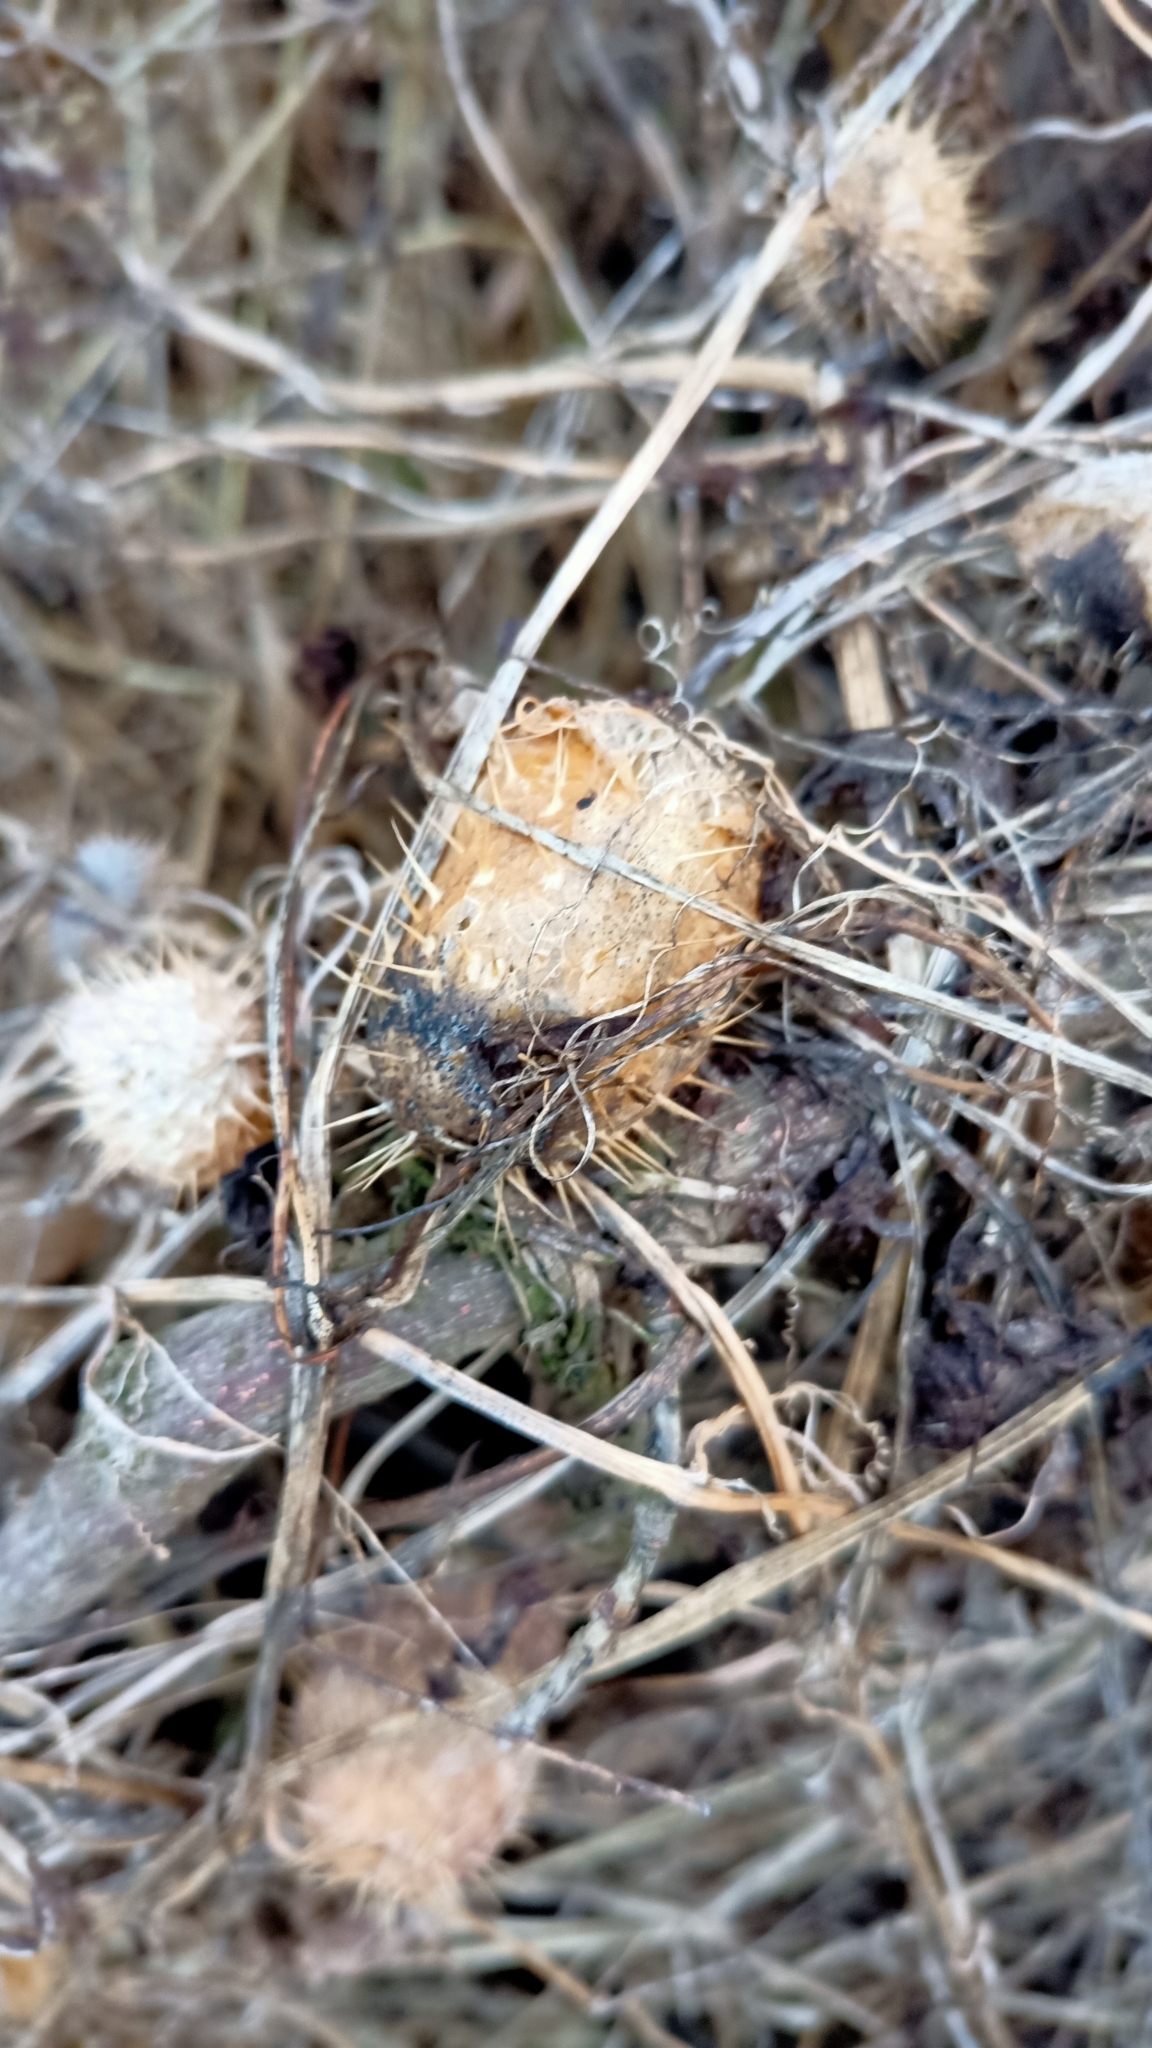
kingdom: Plantae
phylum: Tracheophyta
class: Magnoliopsida
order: Cucurbitales
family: Cucurbitaceae
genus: Echinocystis
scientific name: Echinocystis lobata
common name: Wild cucumber
